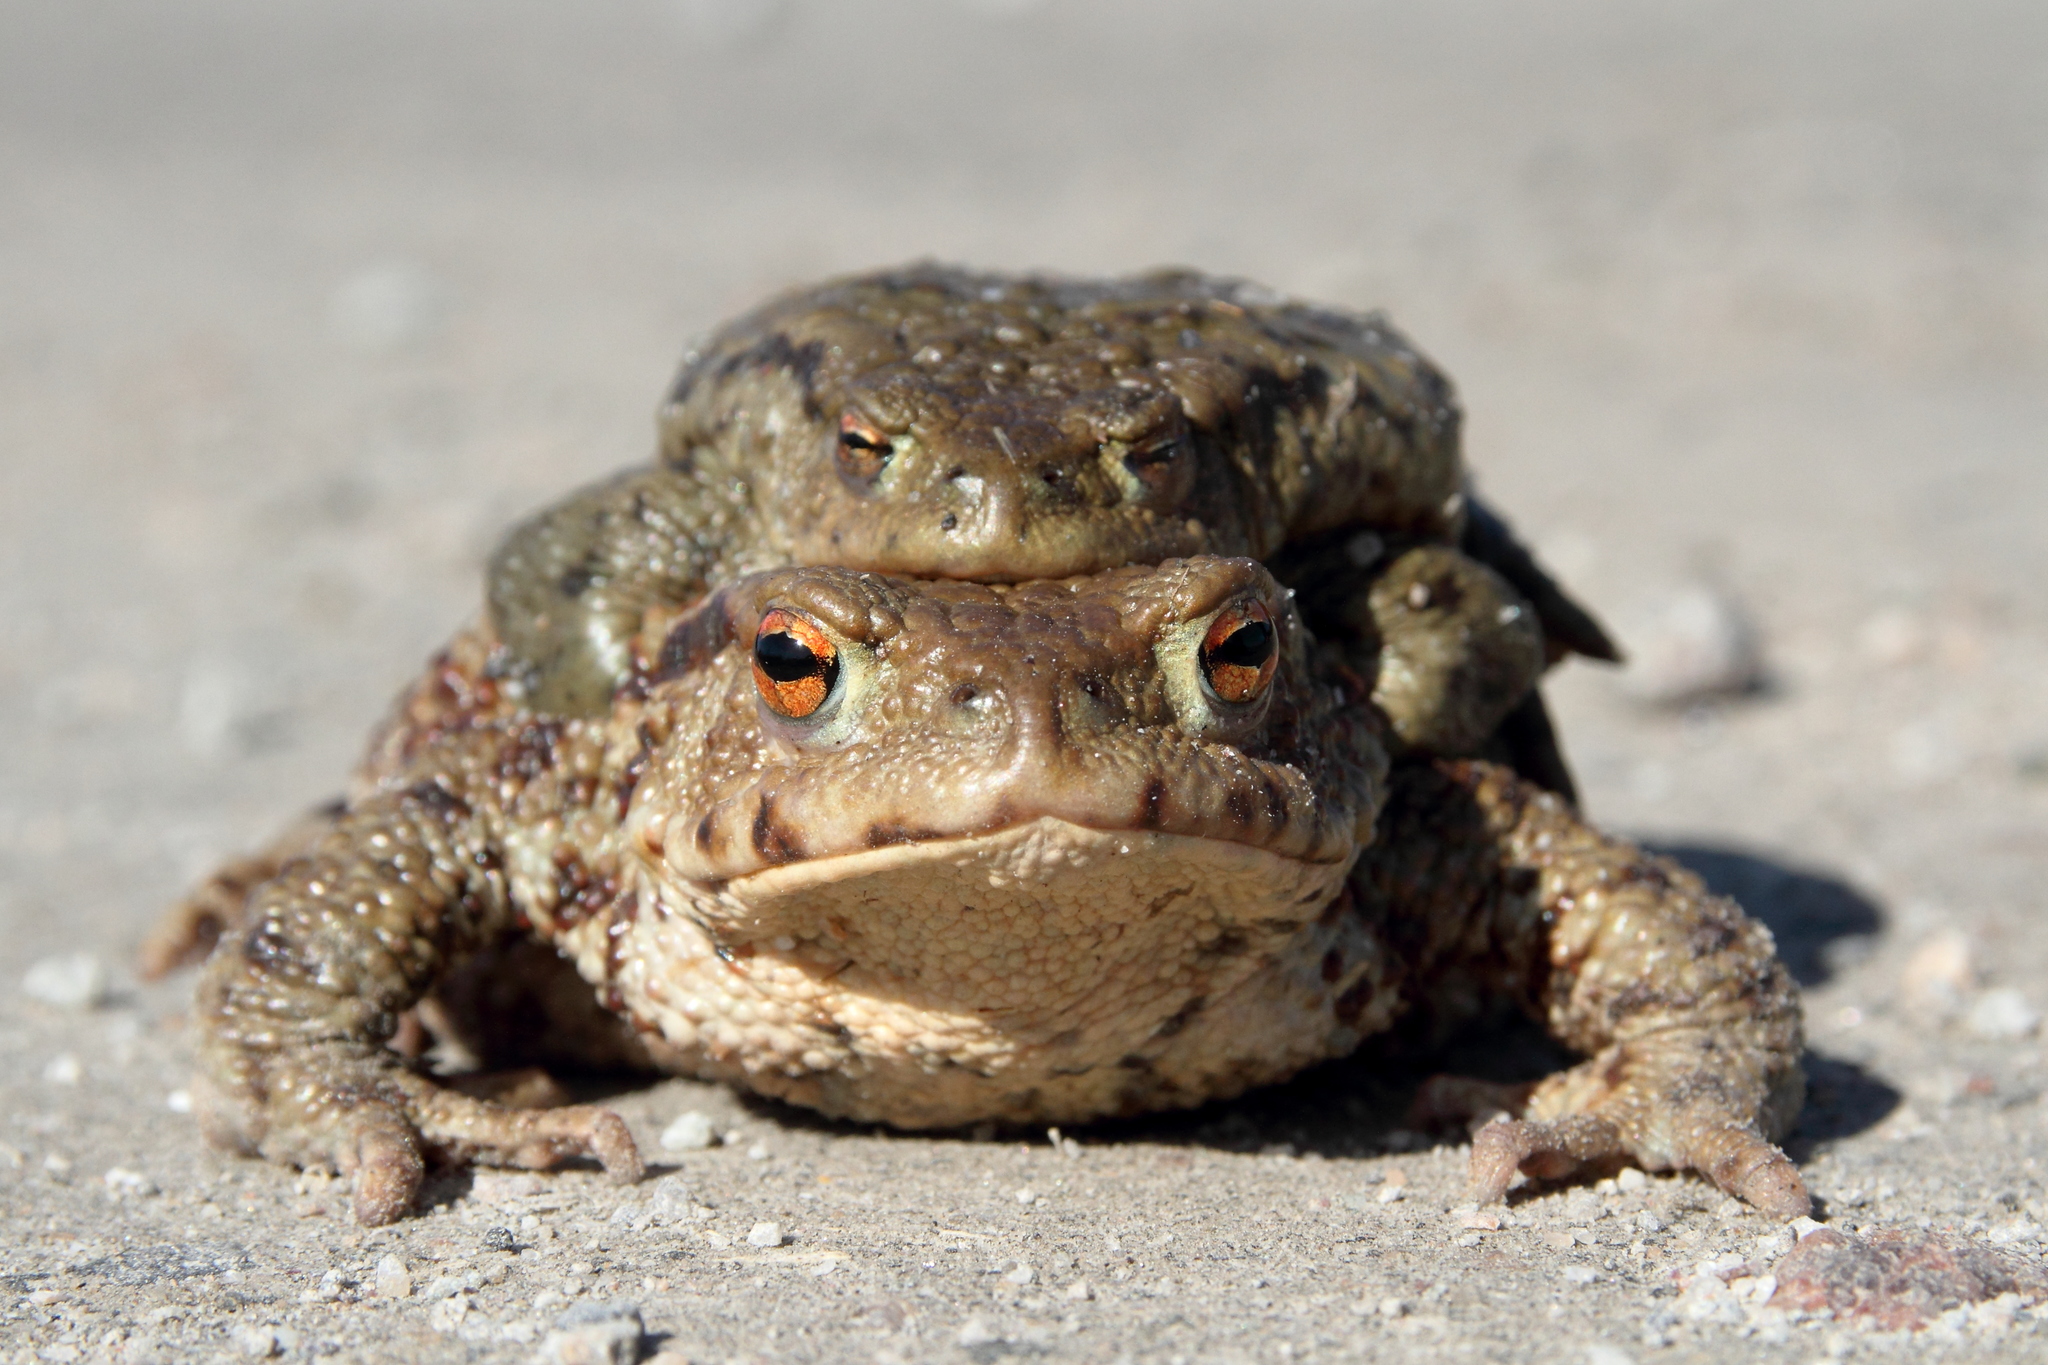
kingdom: Animalia
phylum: Chordata
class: Amphibia
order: Anura
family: Bufonidae
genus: Bufo
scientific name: Bufo bufo
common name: Common toad
